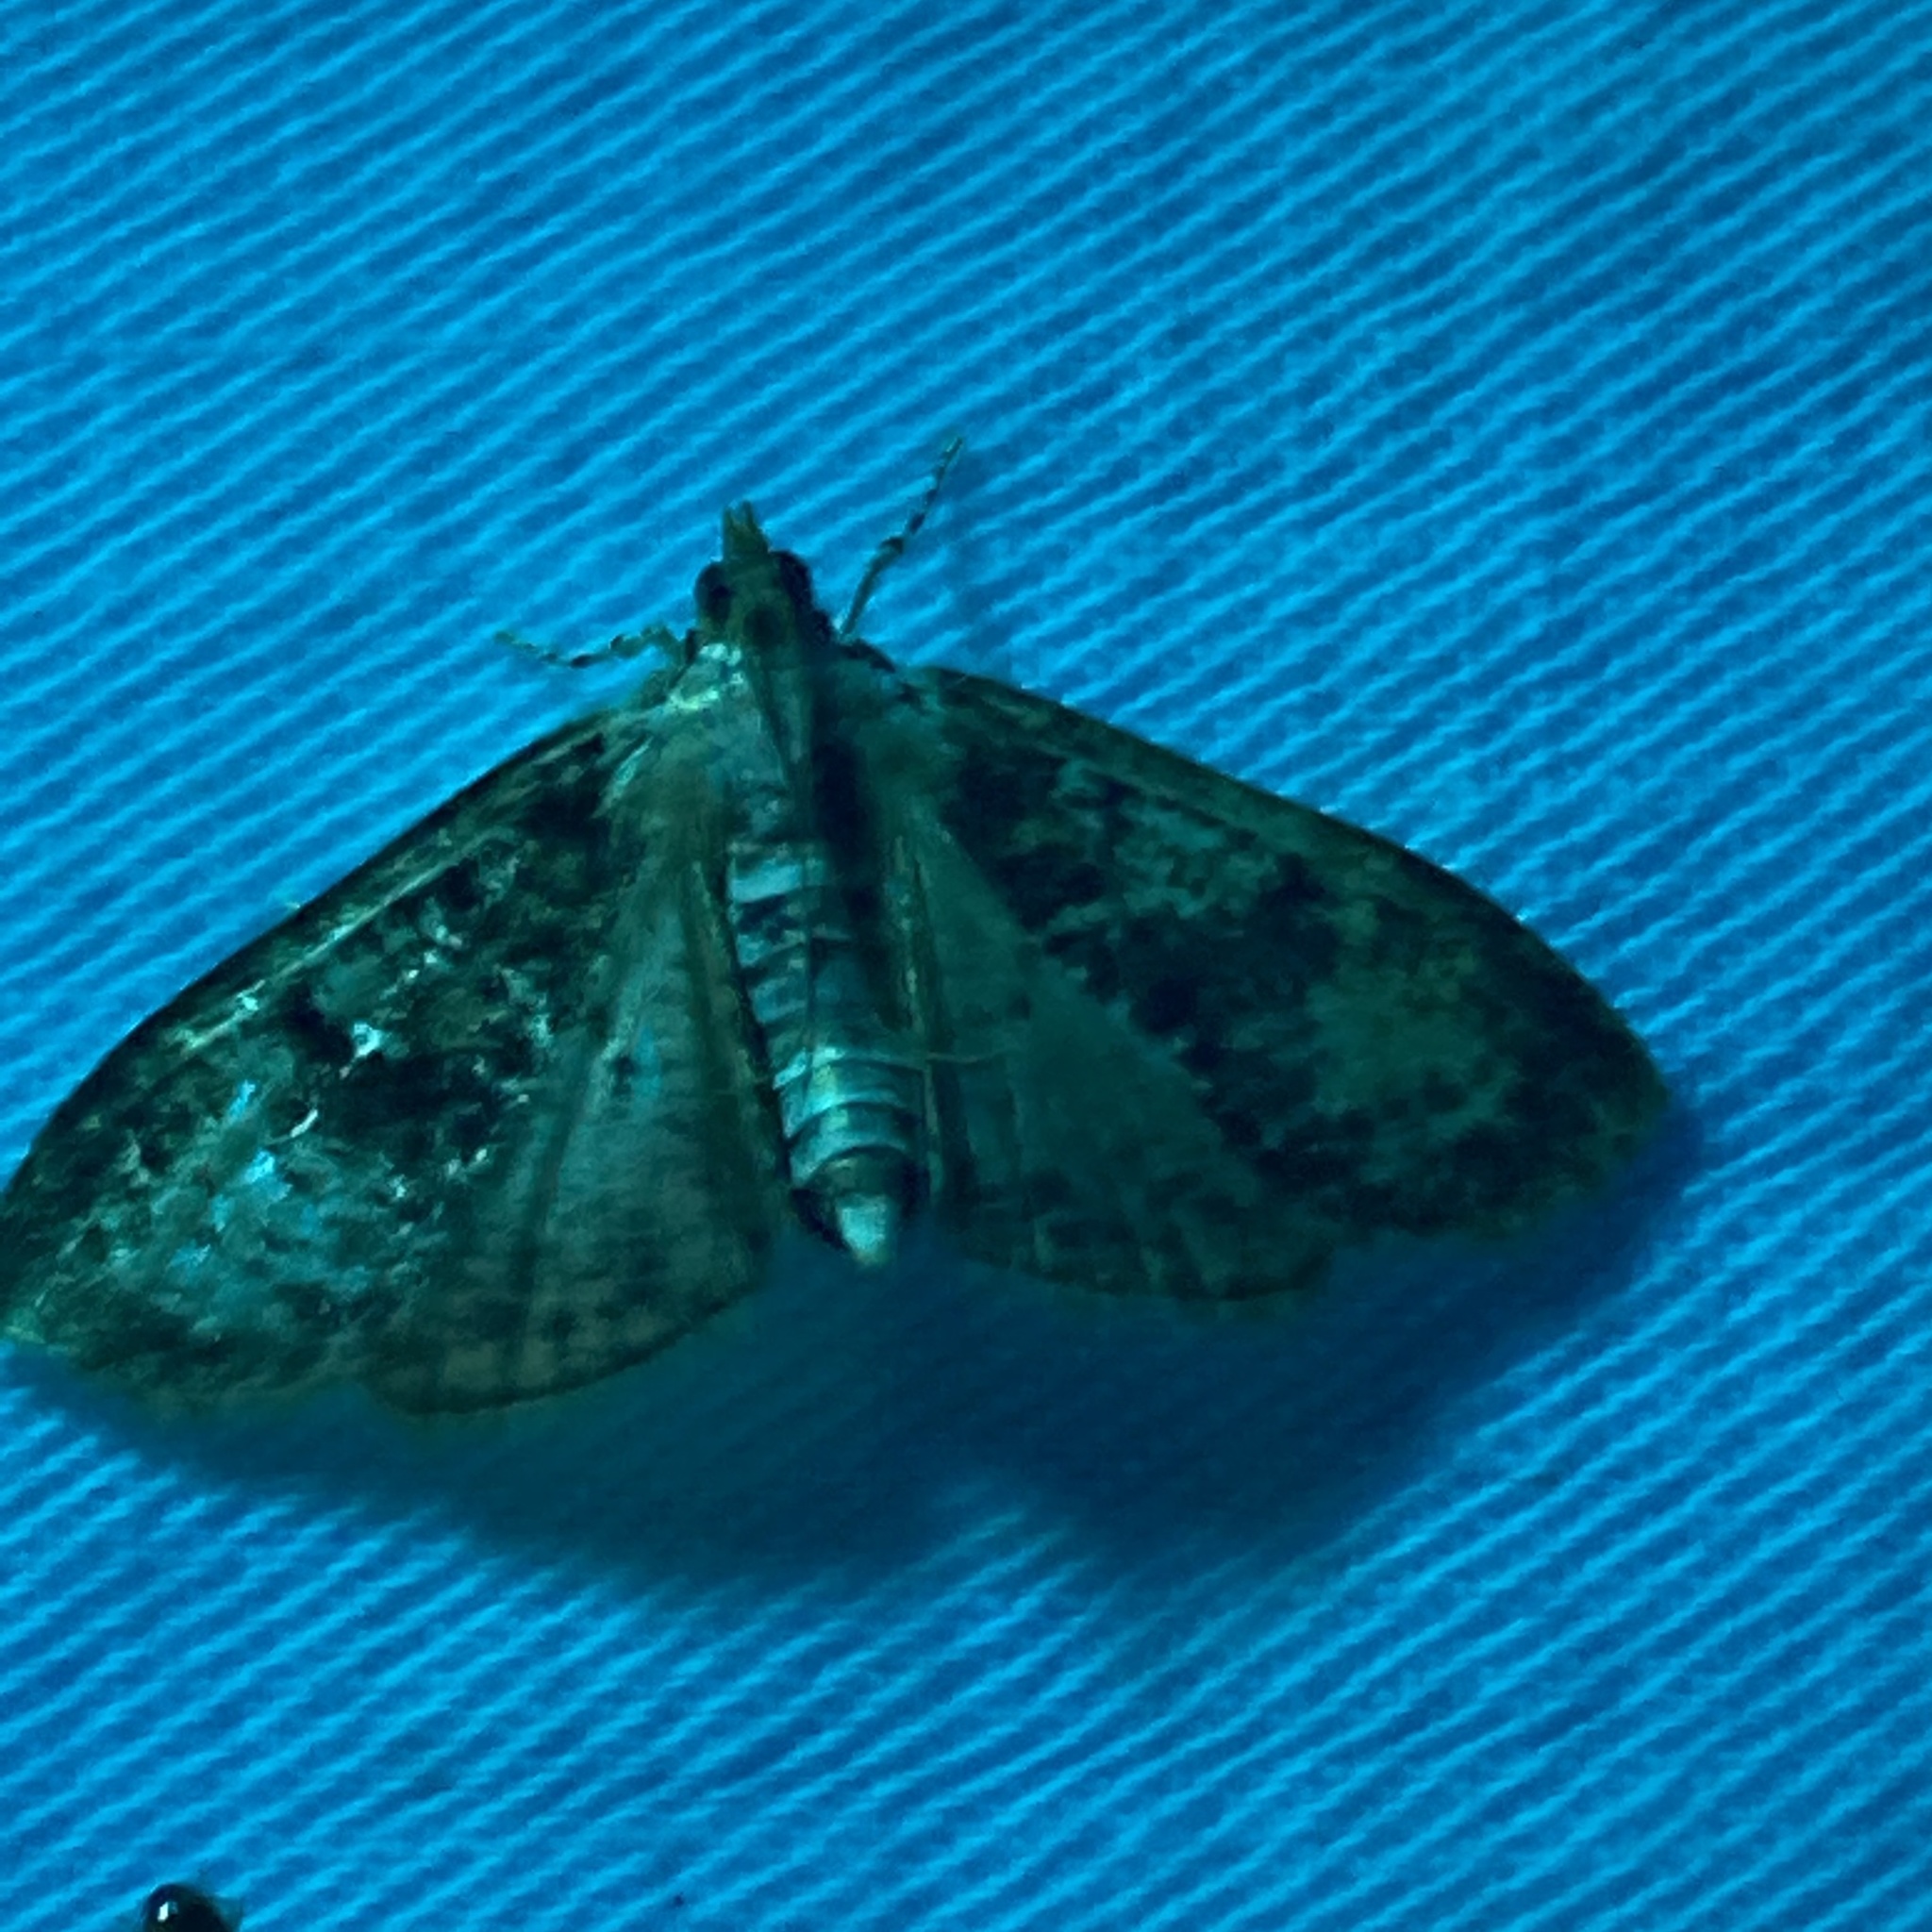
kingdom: Animalia
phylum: Arthropoda
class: Insecta
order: Lepidoptera
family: Crambidae
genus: Palpita
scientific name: Palpita magniferalis
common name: Splendid palpita moth
